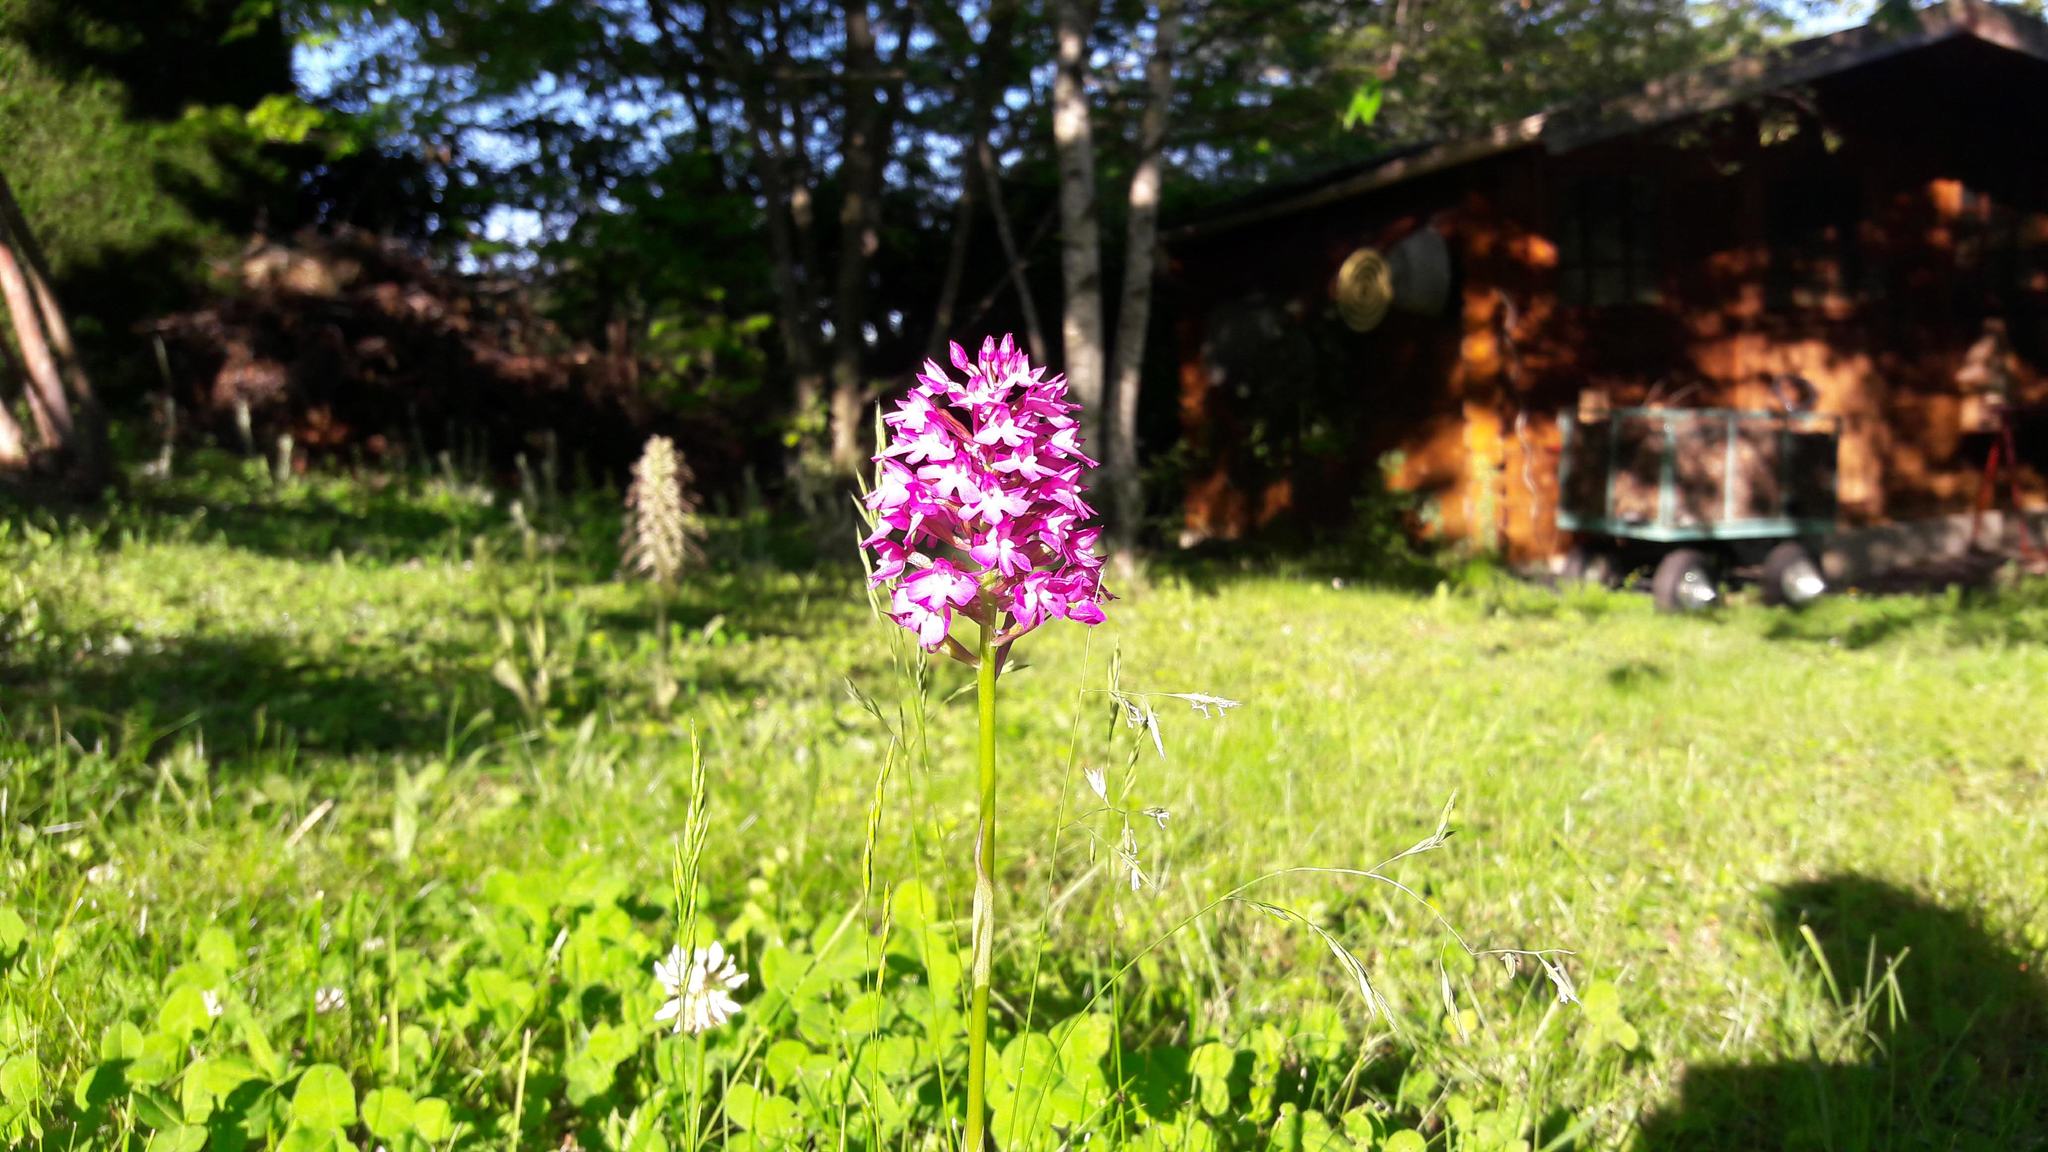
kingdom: Plantae
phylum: Tracheophyta
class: Liliopsida
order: Asparagales
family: Orchidaceae
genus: Anacamptis
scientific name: Anacamptis pyramidalis
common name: Pyramidal orchid
